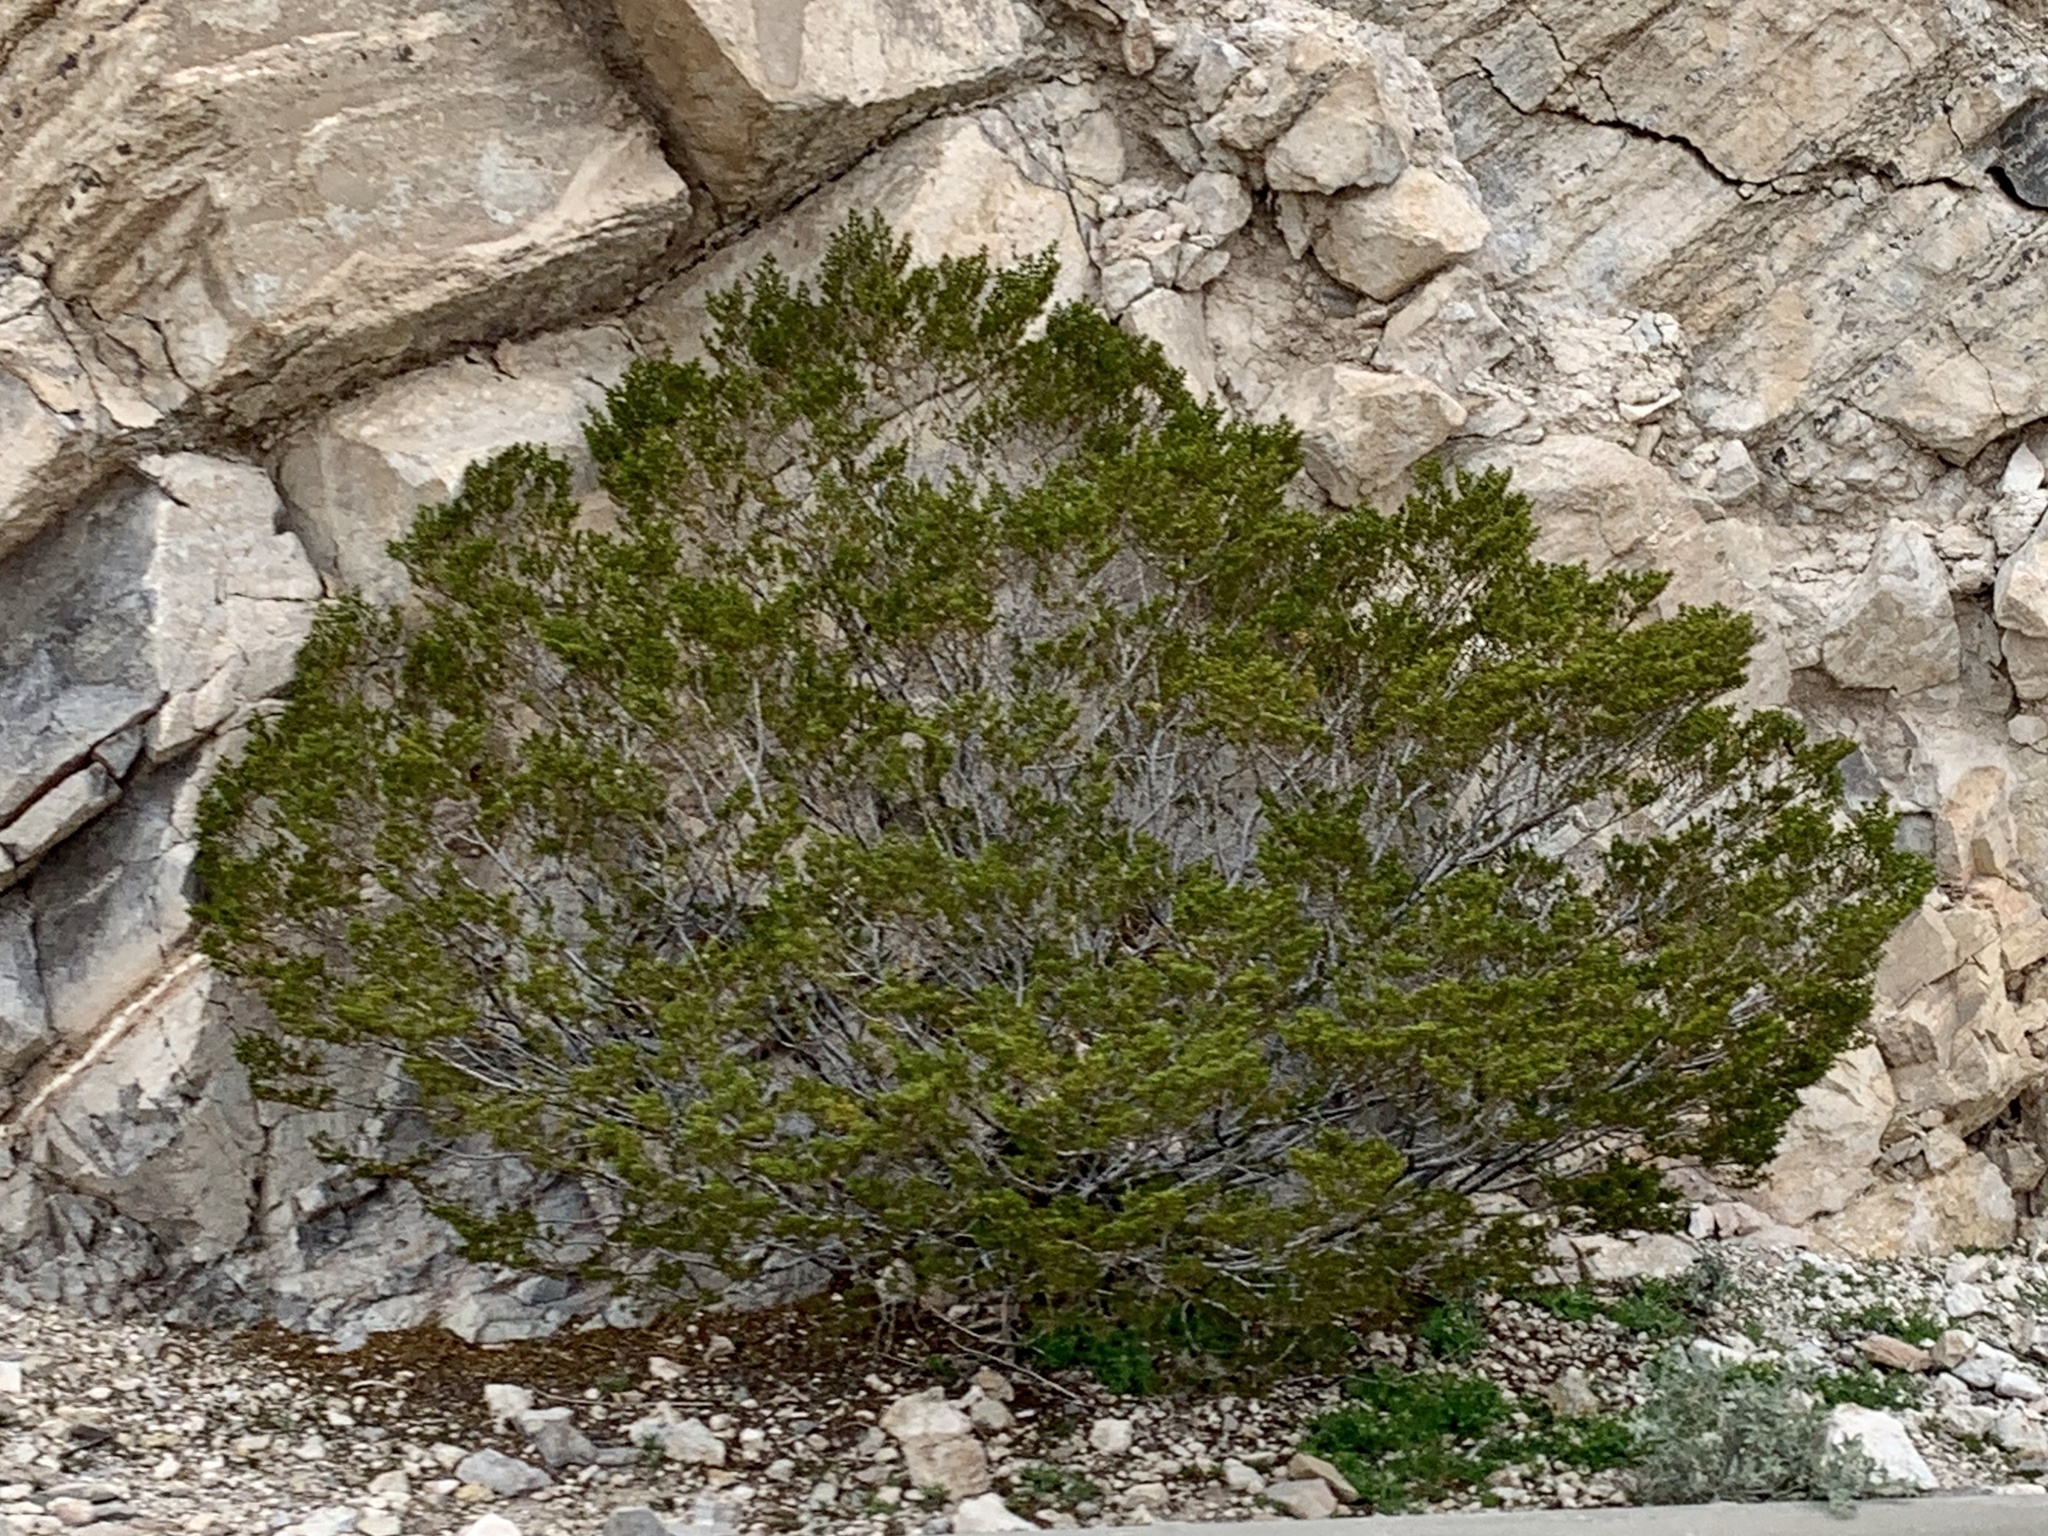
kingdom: Plantae
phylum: Tracheophyta
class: Magnoliopsida
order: Zygophyllales
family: Zygophyllaceae
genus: Larrea
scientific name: Larrea tridentata
